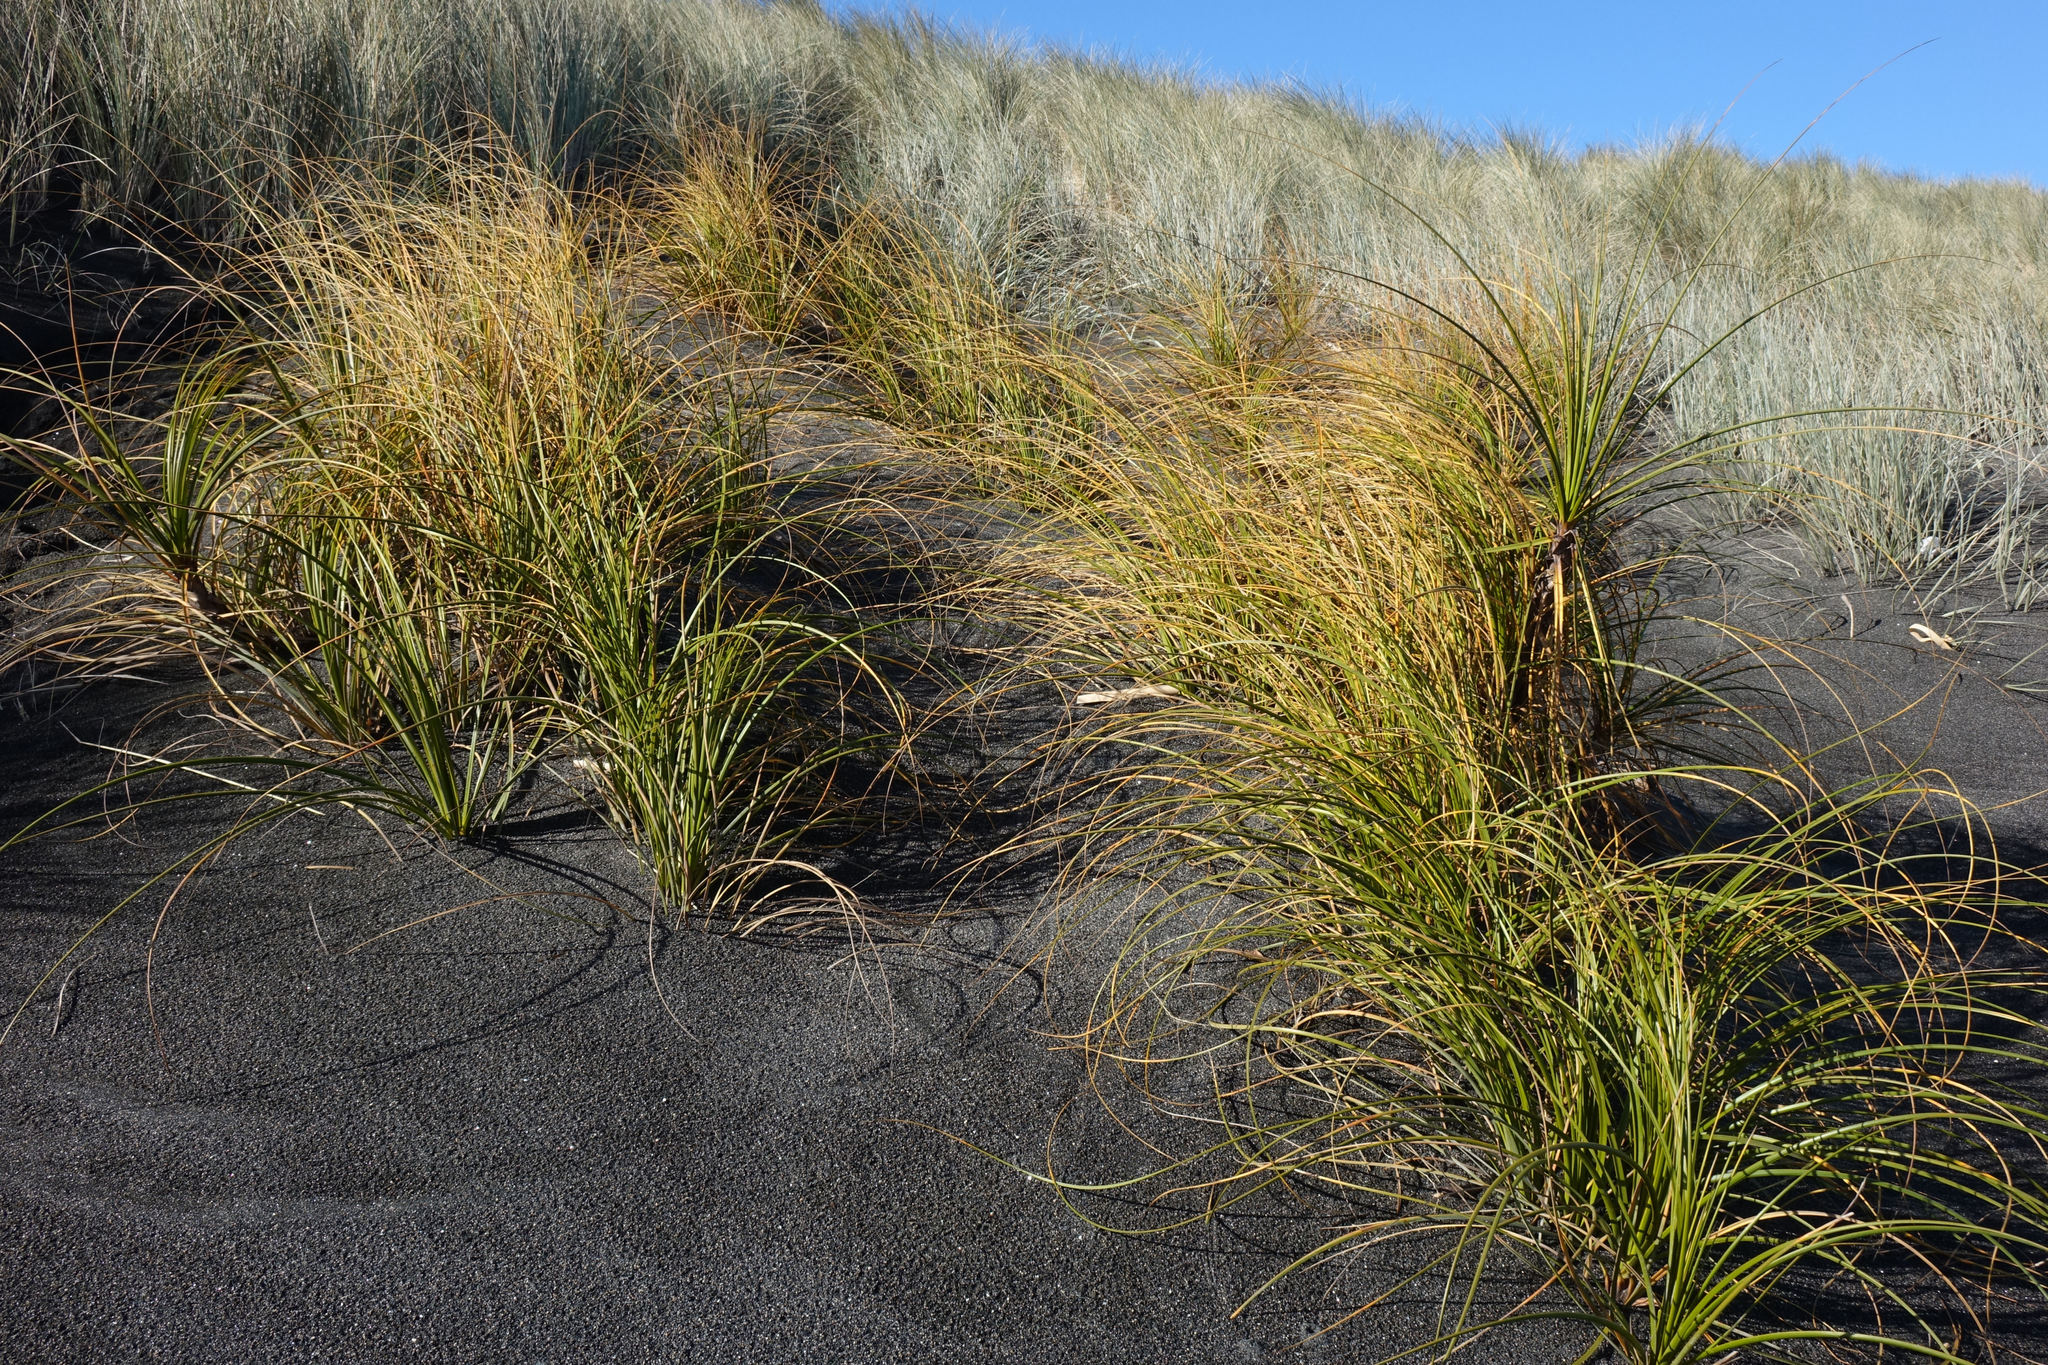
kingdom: Plantae
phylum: Tracheophyta
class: Liliopsida
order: Poales
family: Cyperaceae
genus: Ficinia
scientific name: Ficinia spiralis
